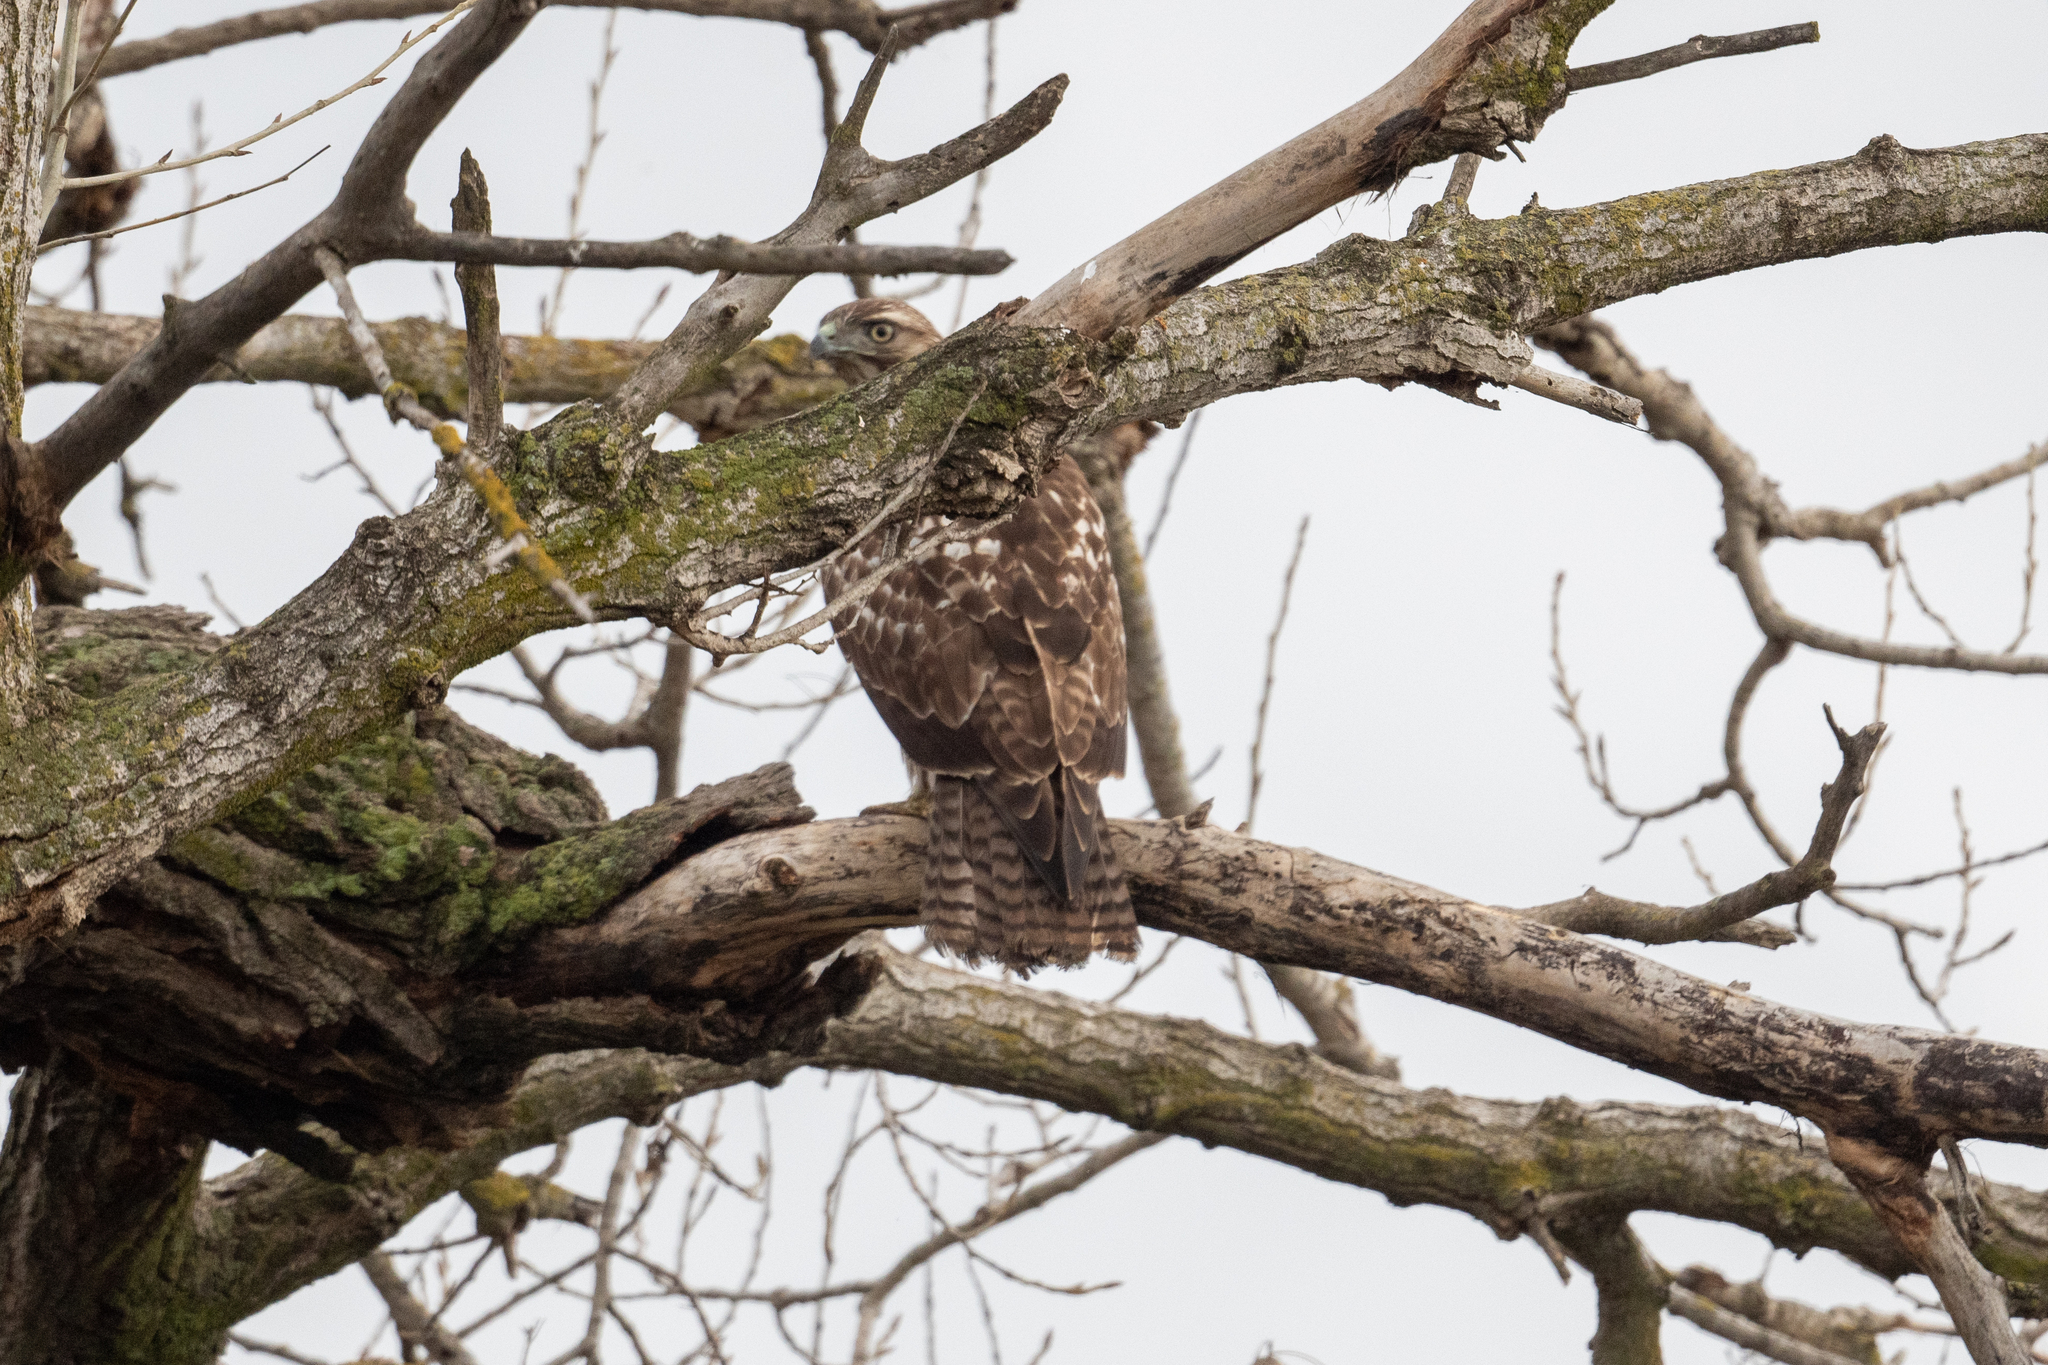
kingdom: Animalia
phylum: Chordata
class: Aves
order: Accipitriformes
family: Accipitridae
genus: Buteo
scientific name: Buteo jamaicensis
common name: Red-tailed hawk
